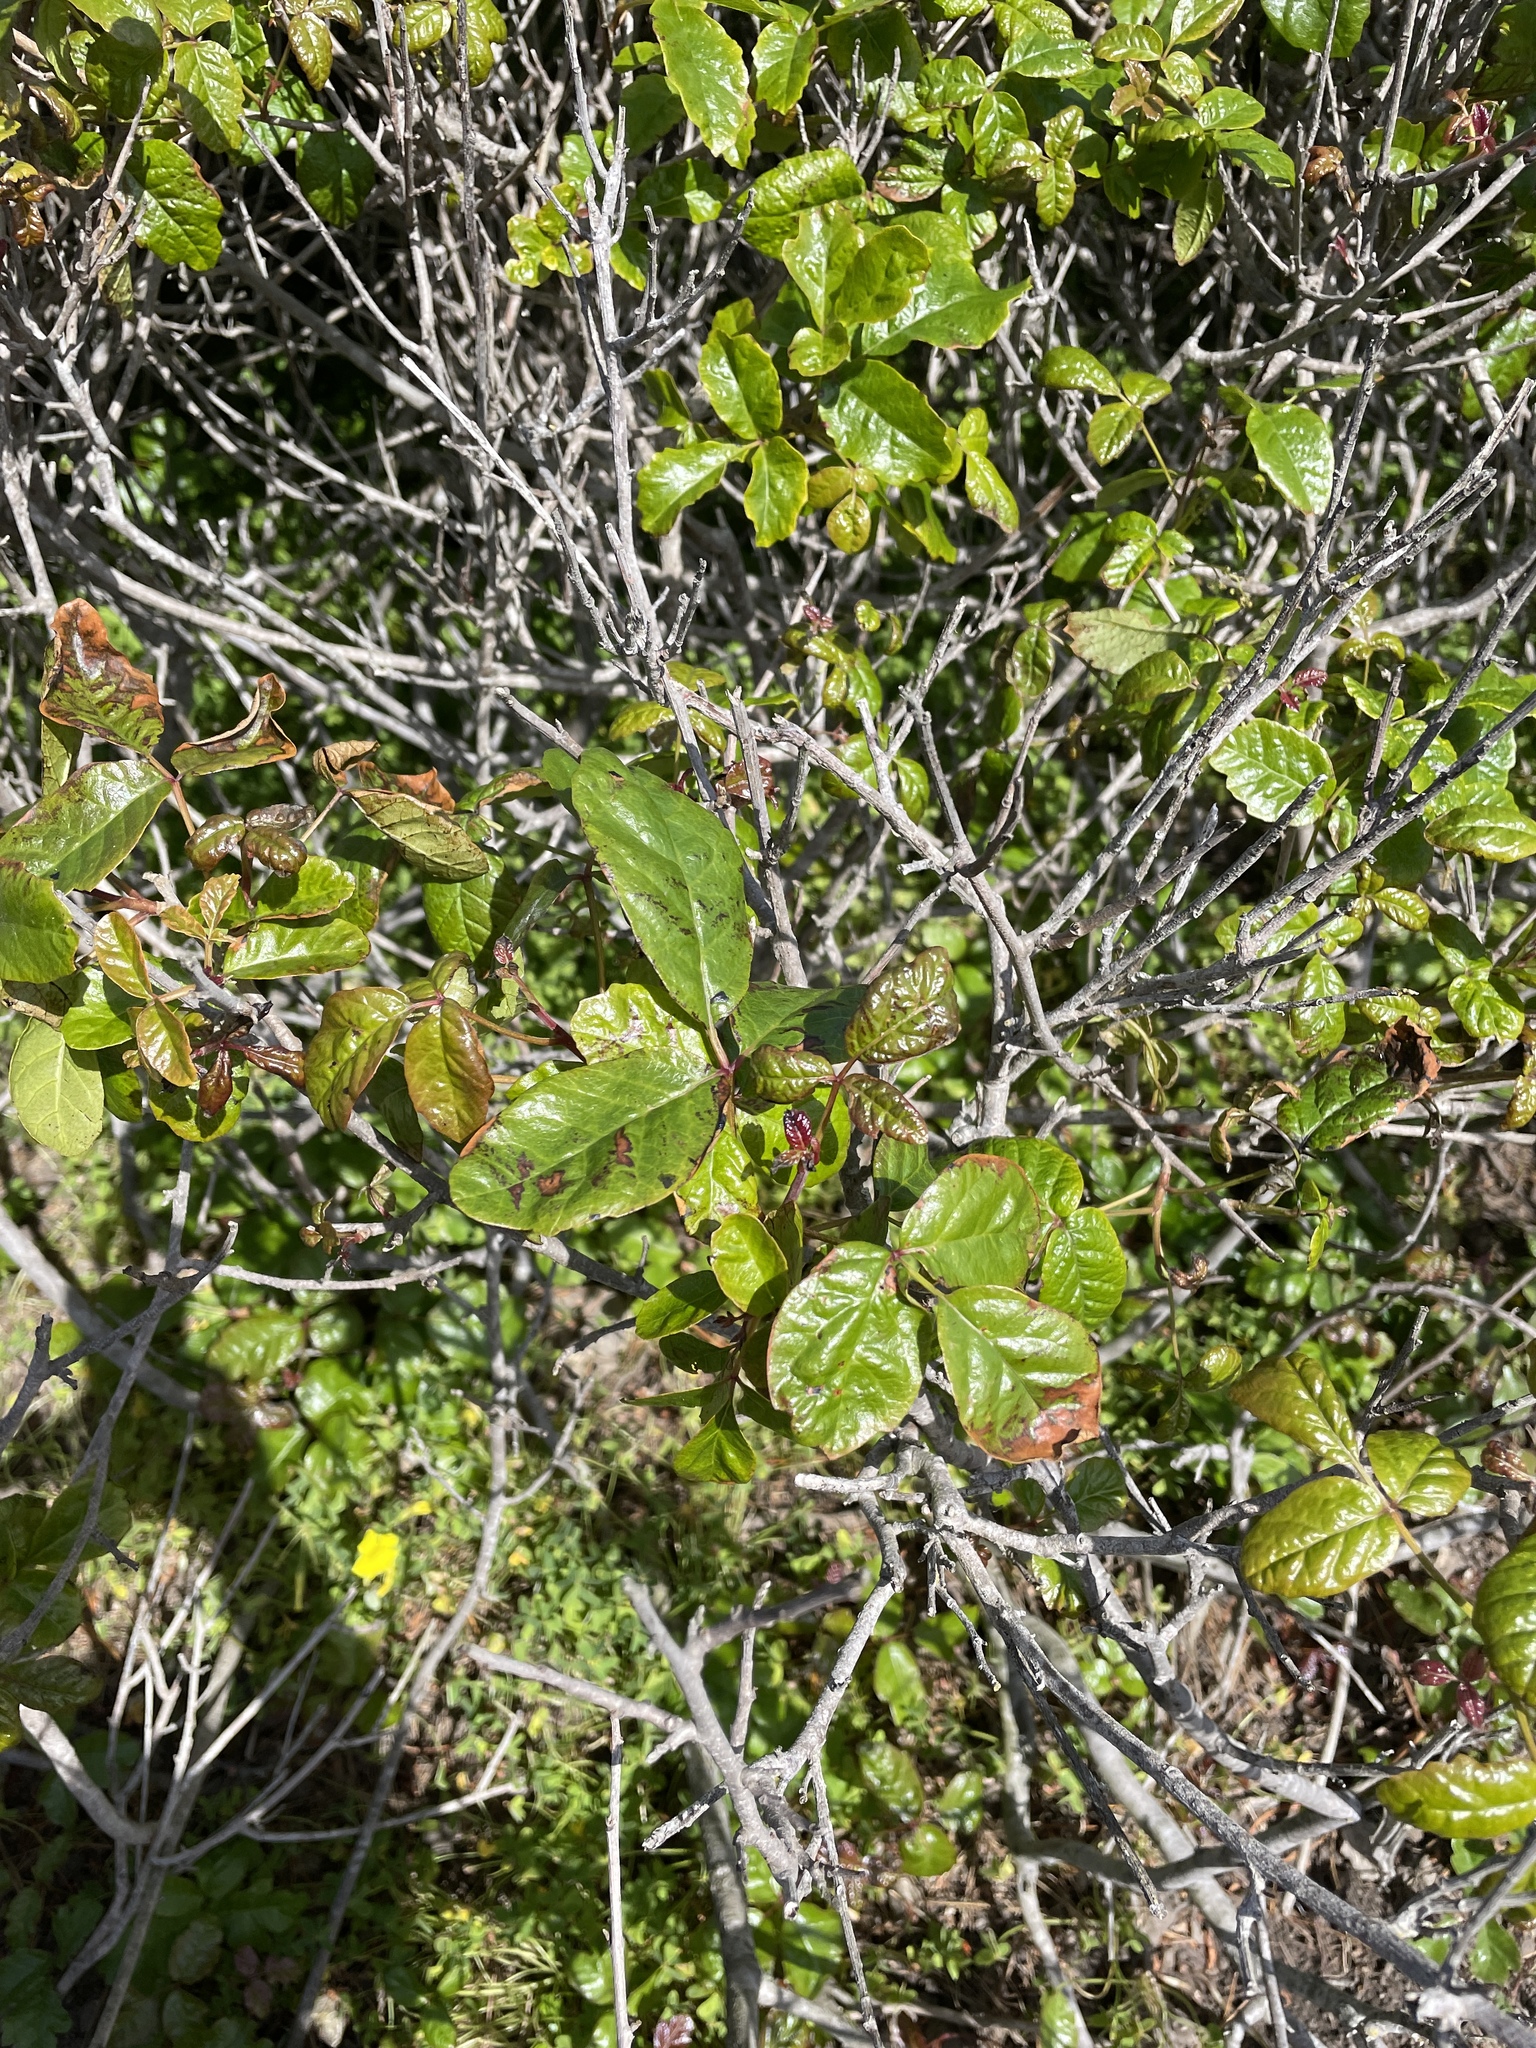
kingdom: Plantae
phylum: Tracheophyta
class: Magnoliopsida
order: Sapindales
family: Anacardiaceae
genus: Toxicodendron
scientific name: Toxicodendron diversilobum
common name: Pacific poison-oak
